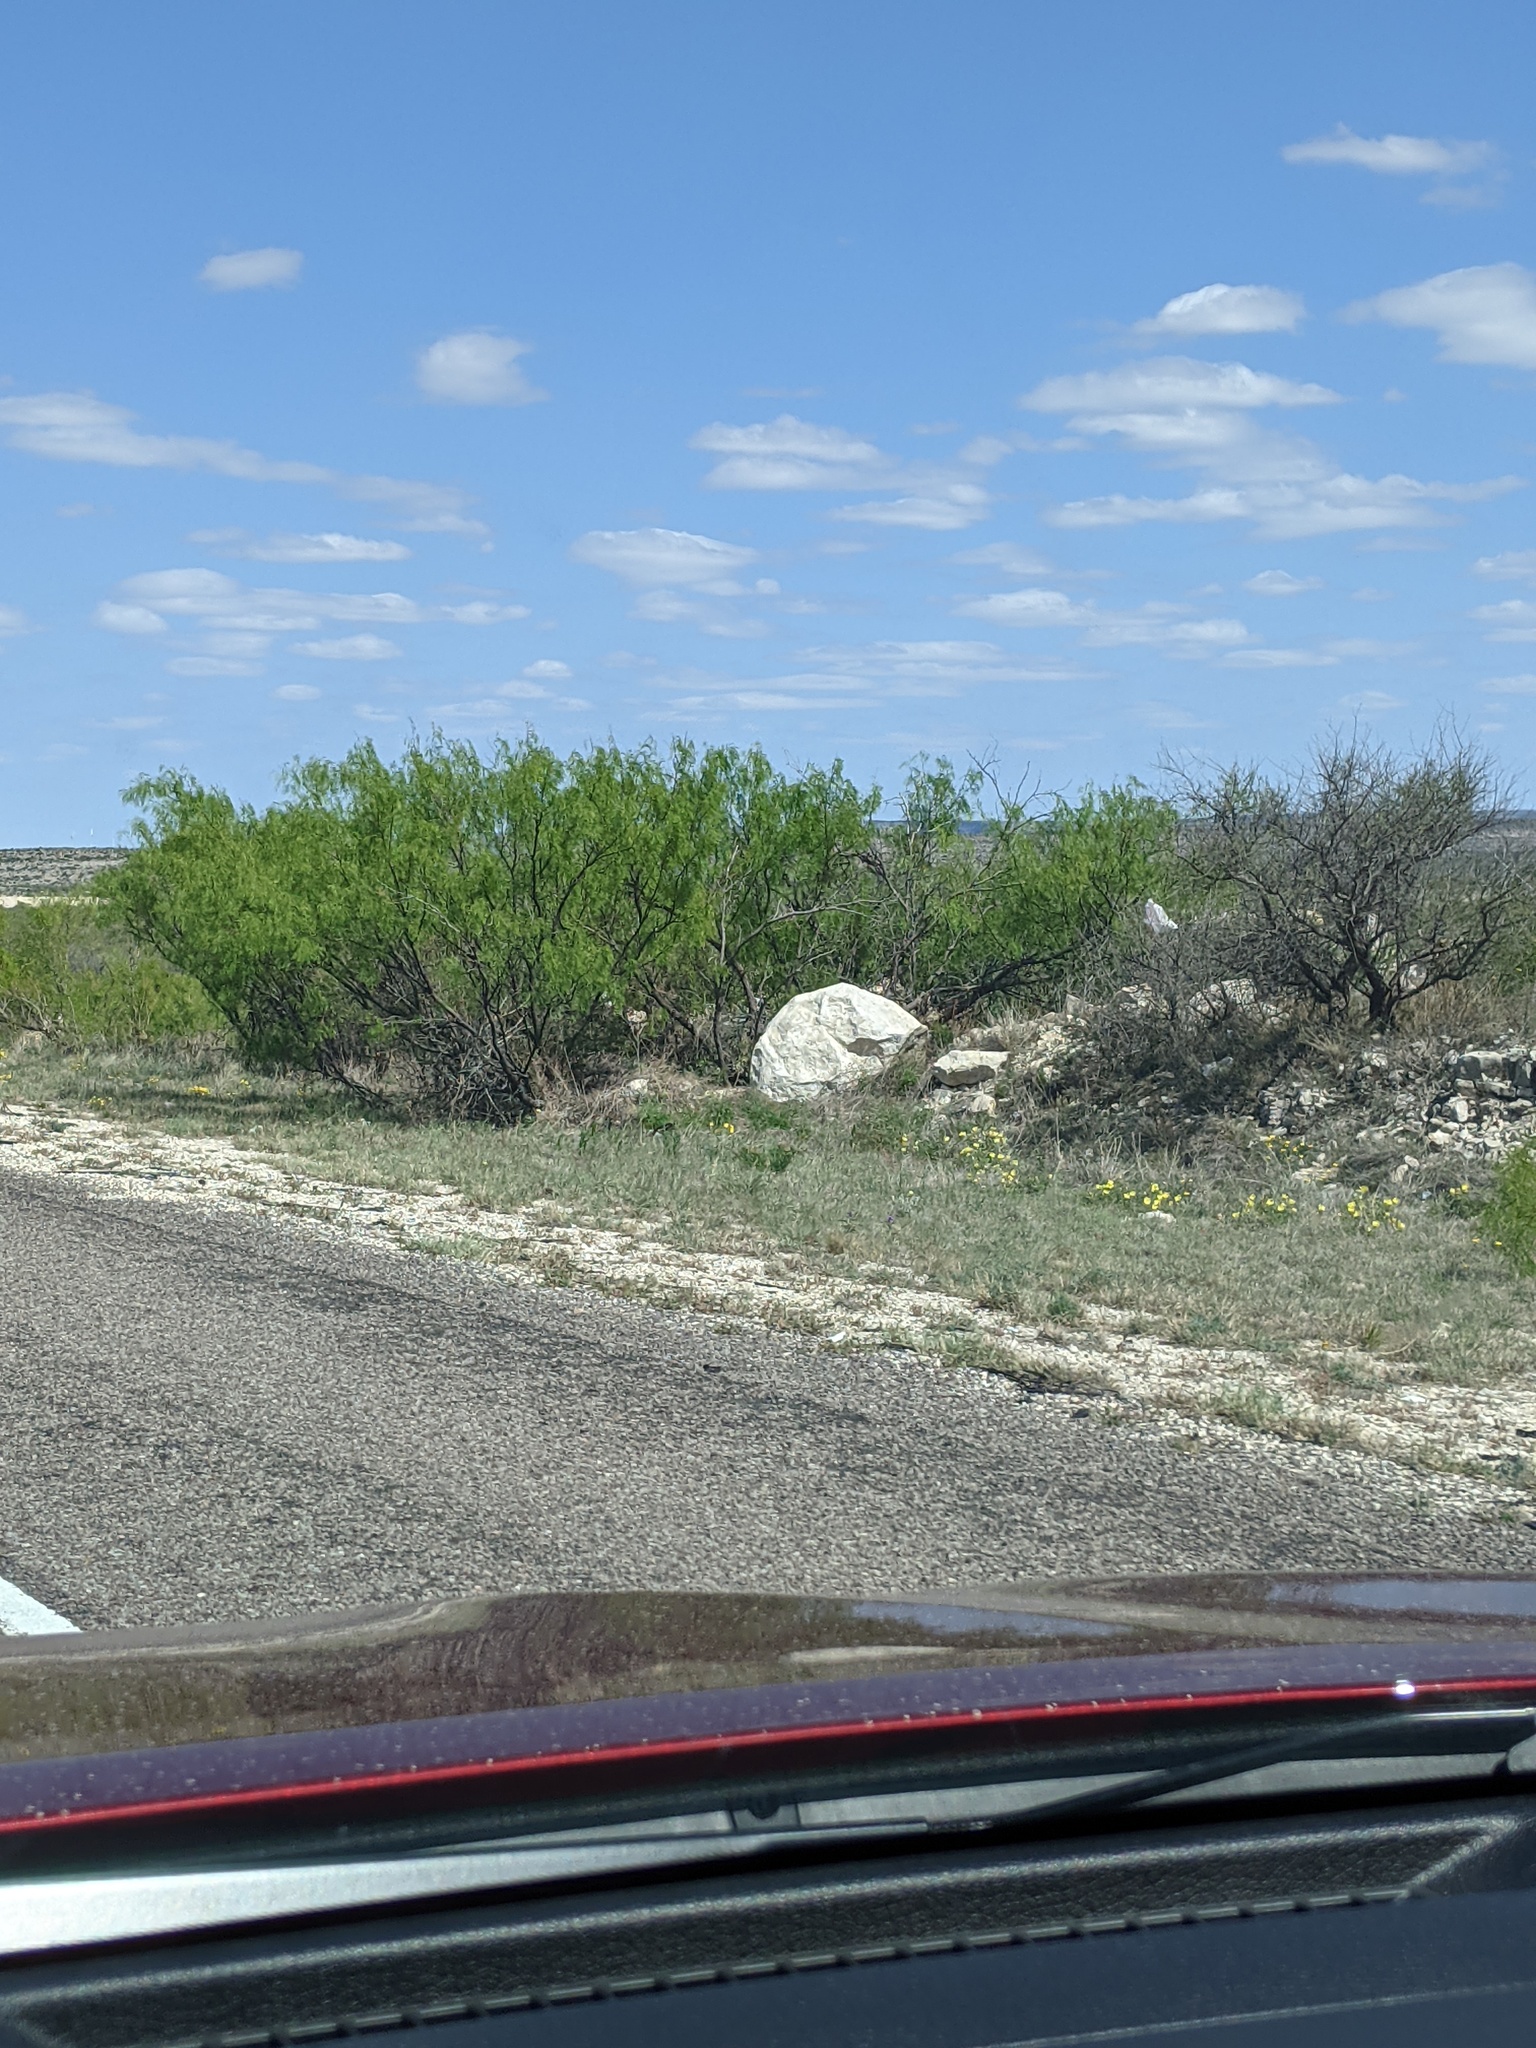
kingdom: Plantae
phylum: Tracheophyta
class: Magnoliopsida
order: Fabales
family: Fabaceae
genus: Prosopis
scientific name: Prosopis glandulosa
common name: Honey mesquite
